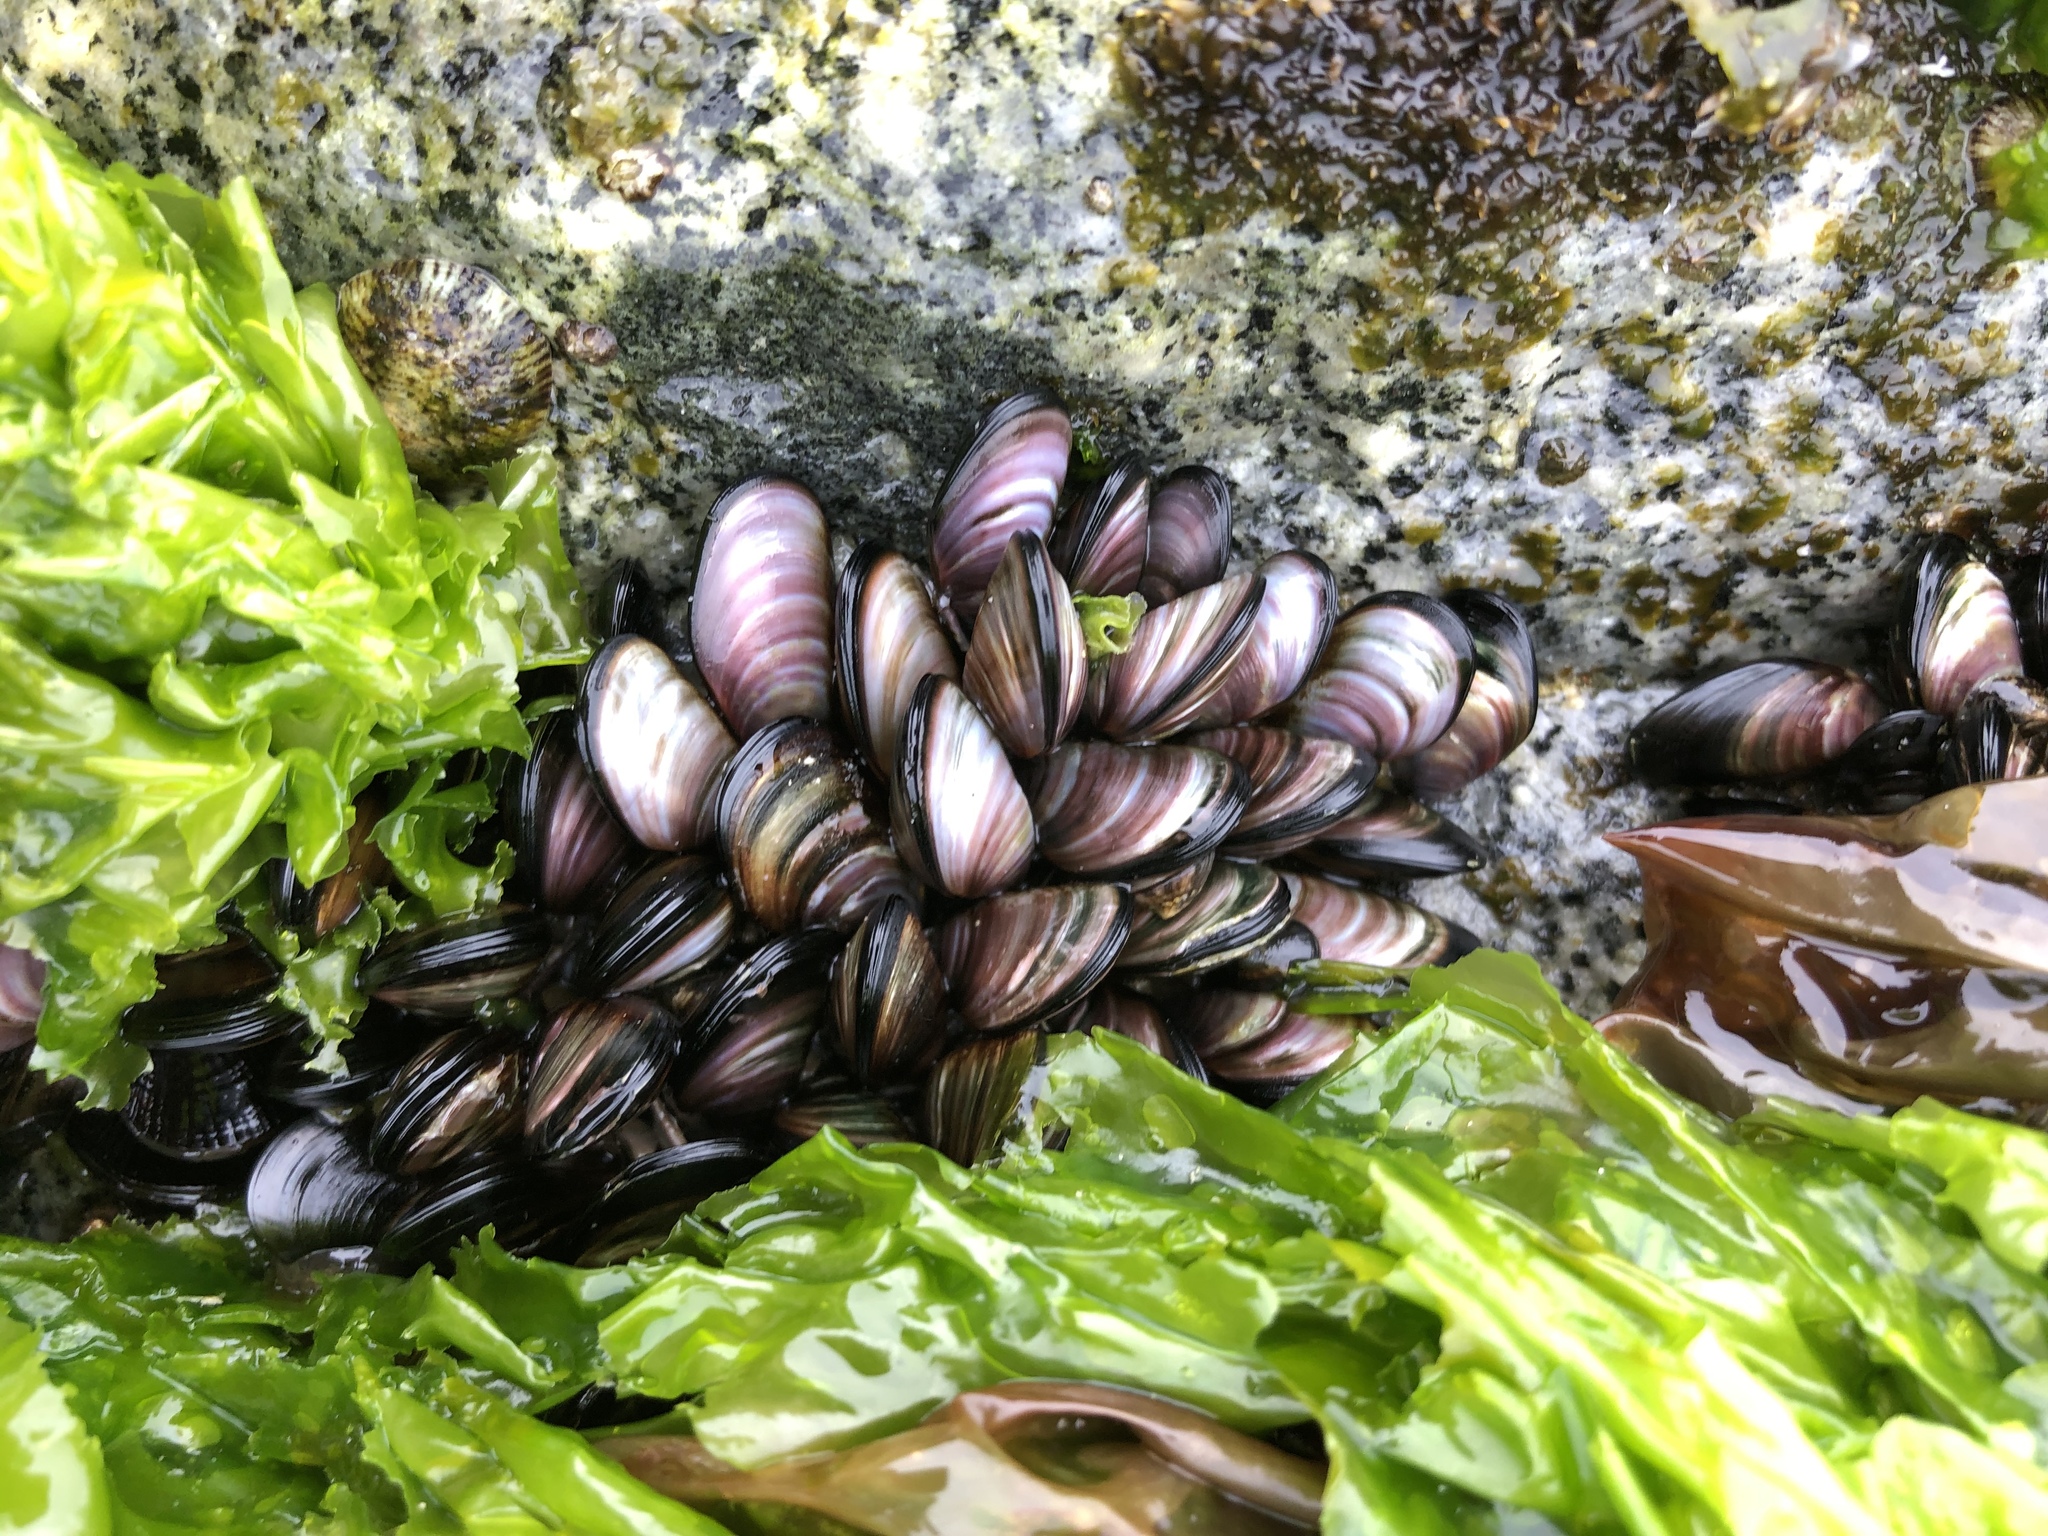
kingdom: Animalia
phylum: Mollusca
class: Bivalvia
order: Mytilida
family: Mytilidae
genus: Semimytilus
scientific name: Semimytilus patagonicus
